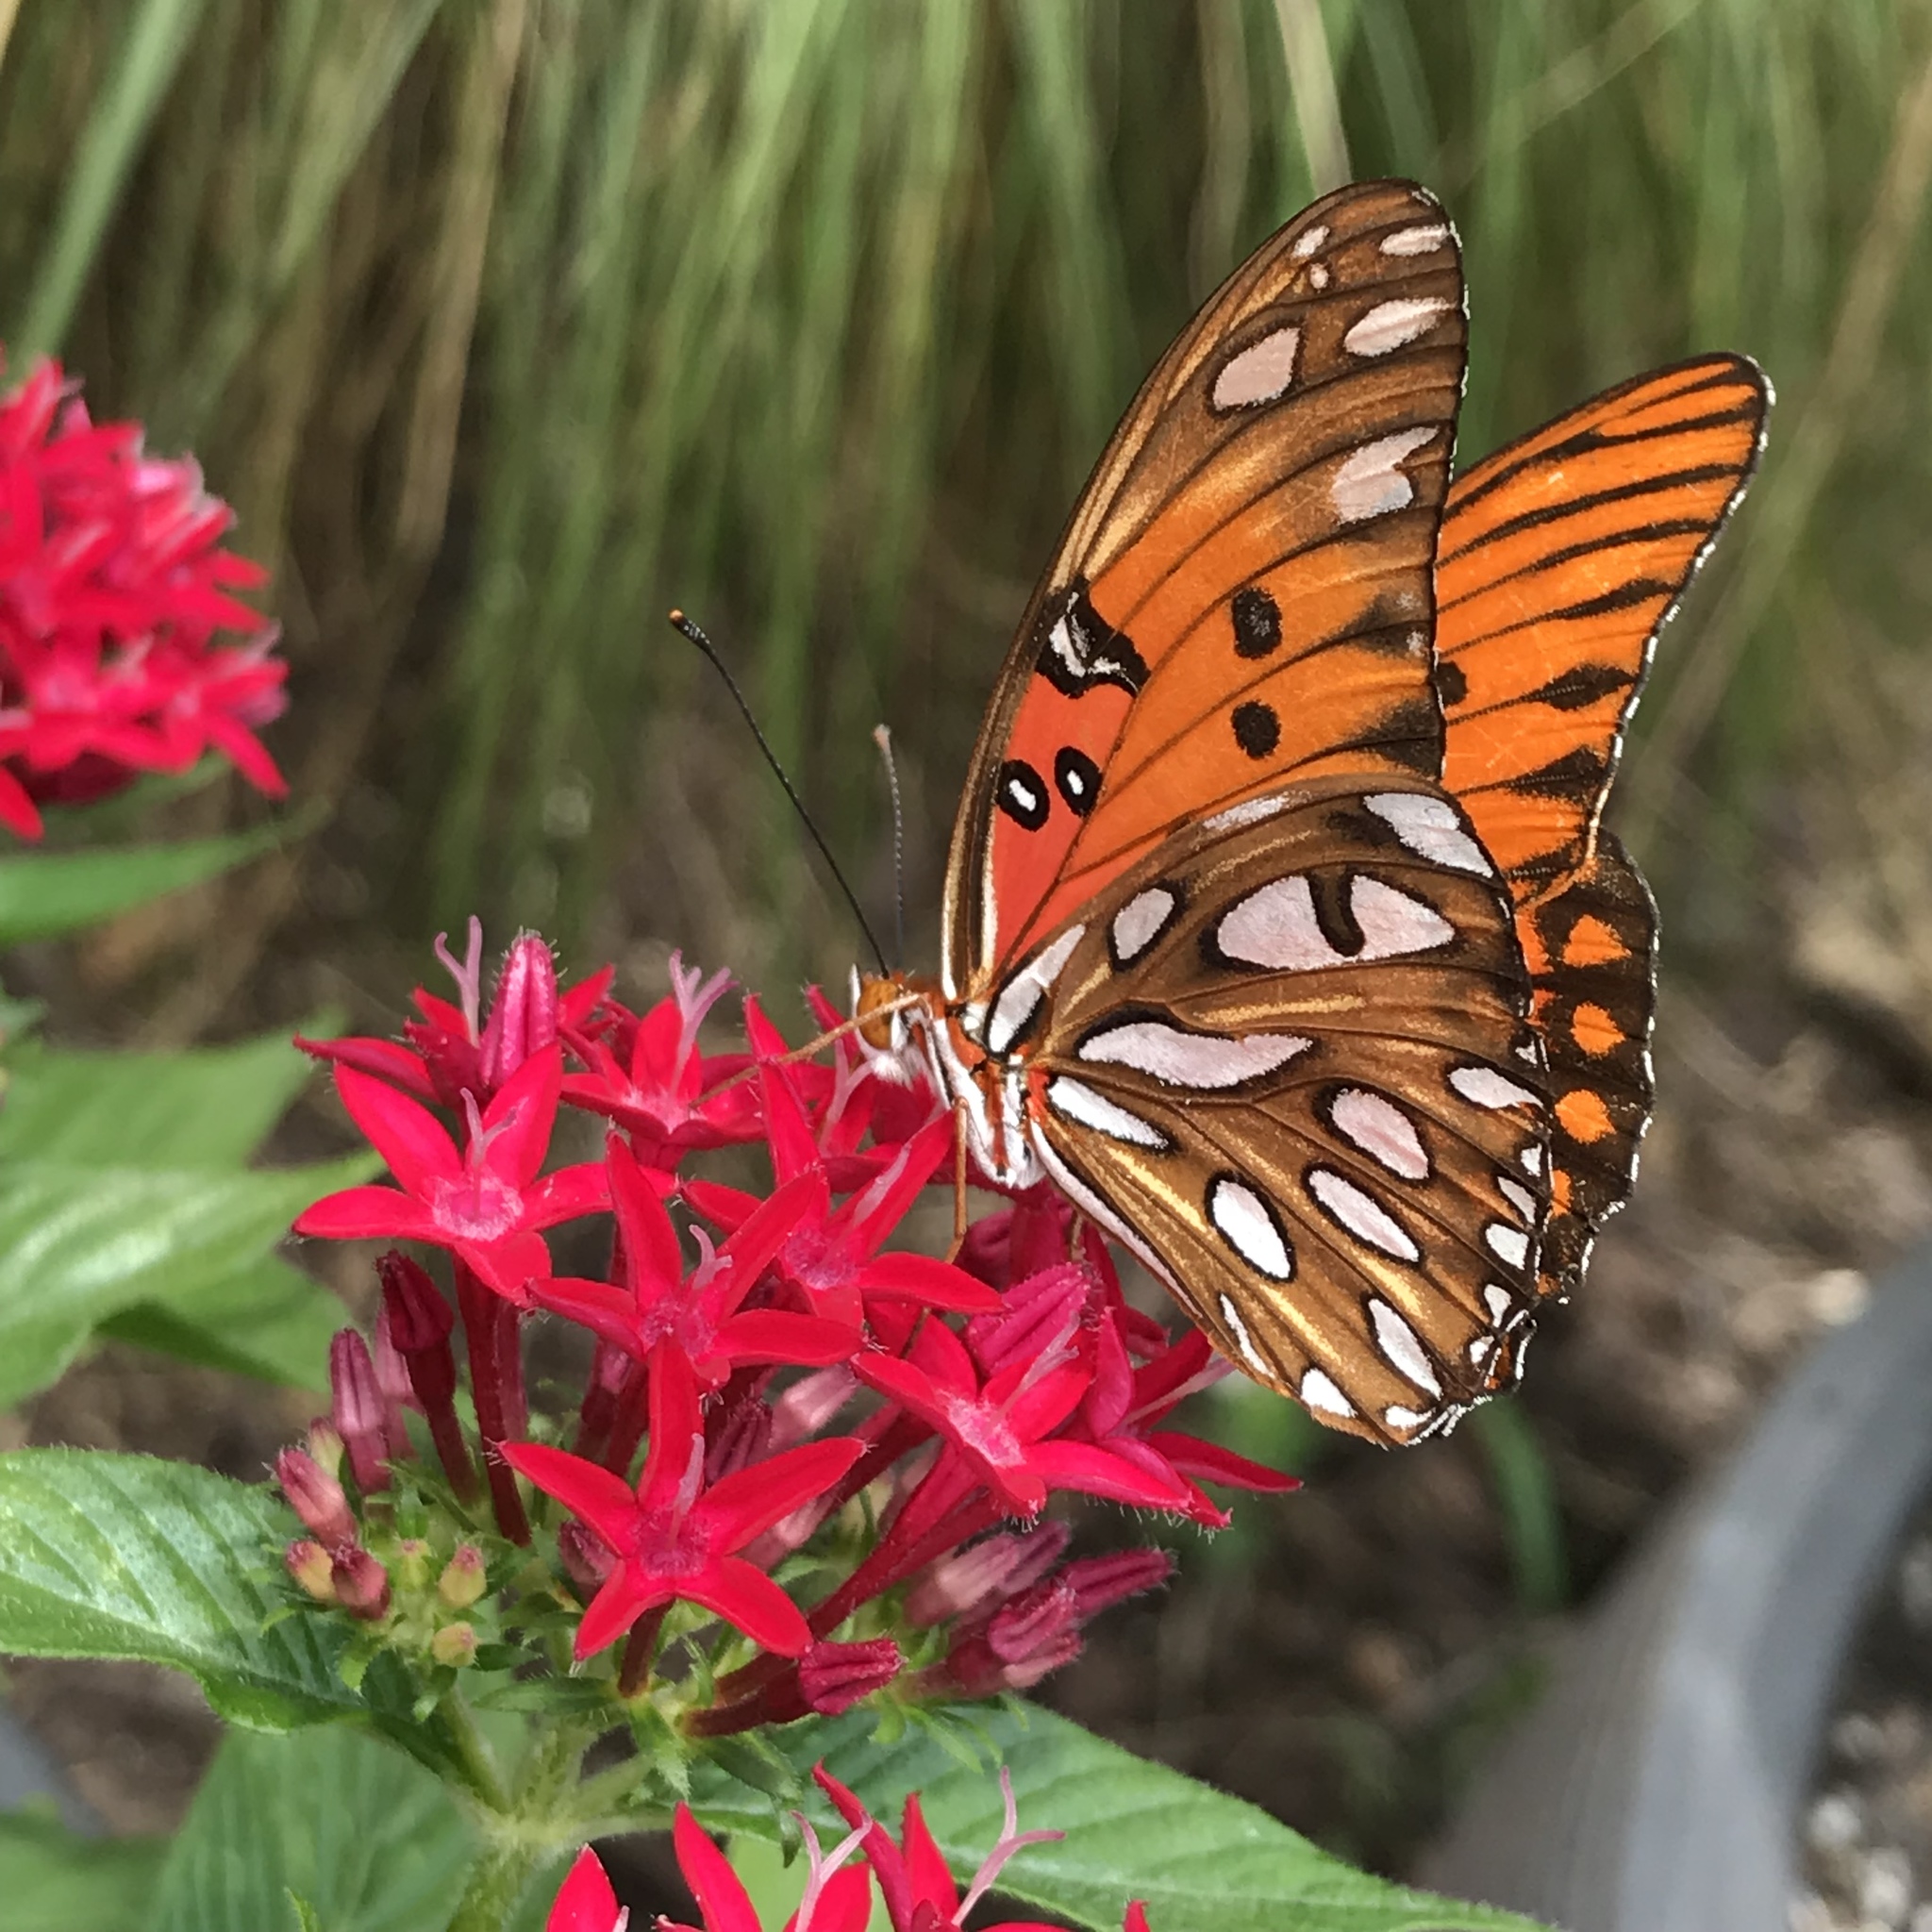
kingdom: Animalia
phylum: Arthropoda
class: Insecta
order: Lepidoptera
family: Nymphalidae
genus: Dione
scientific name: Dione vanillae
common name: Gulf fritillary
